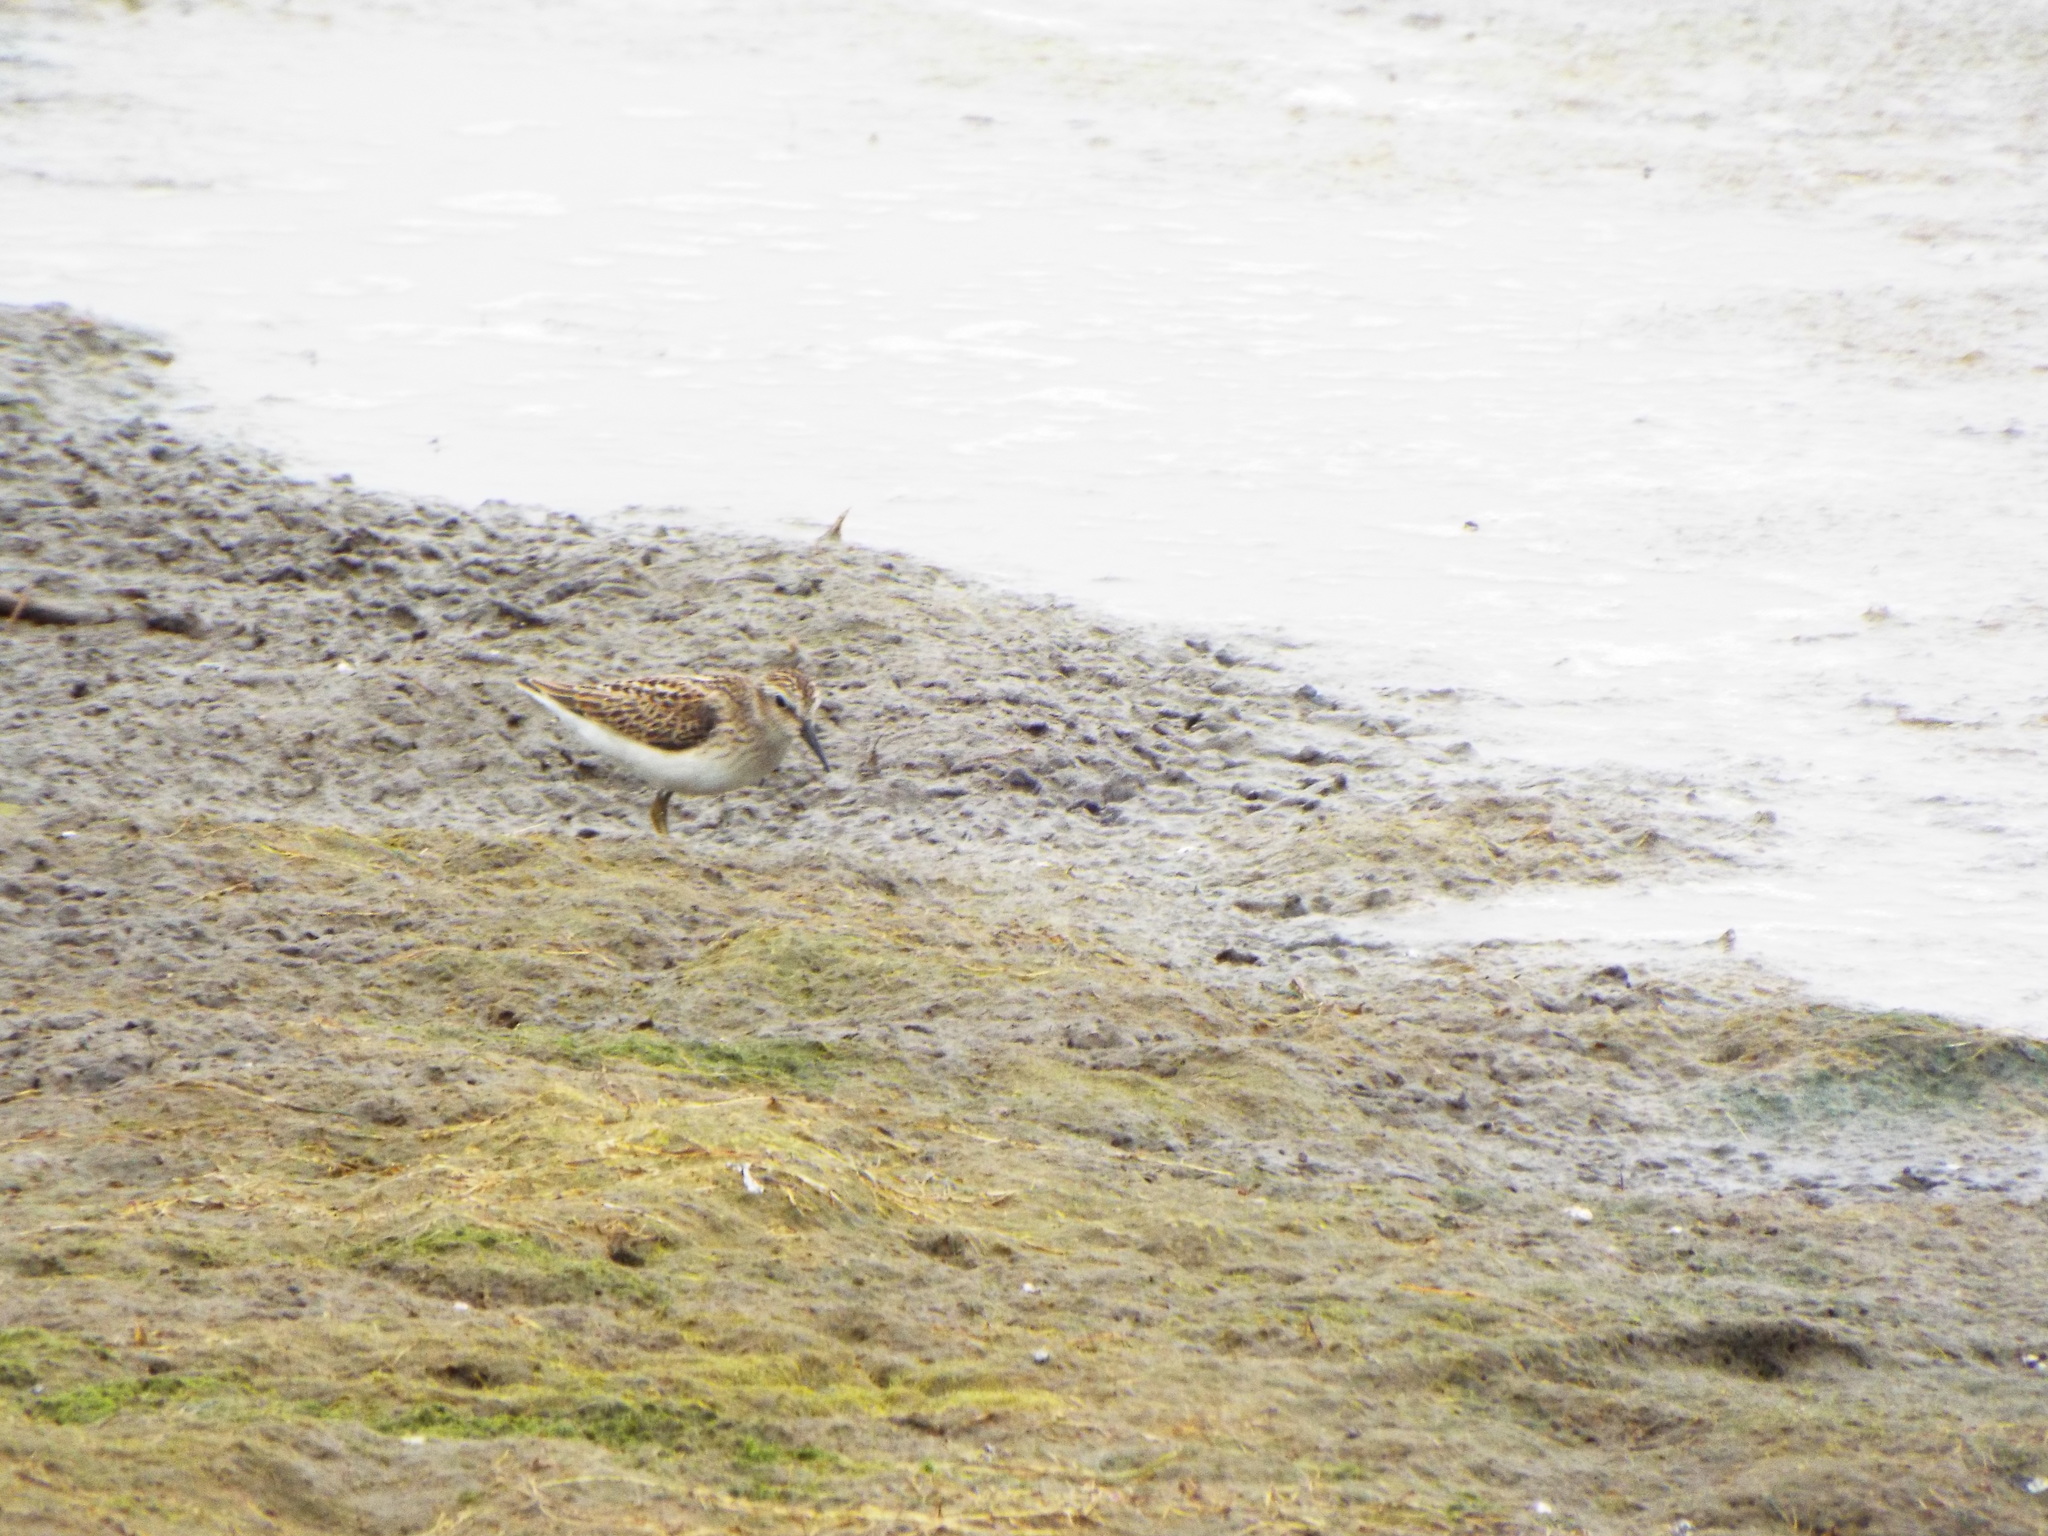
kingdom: Animalia
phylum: Chordata
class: Aves
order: Charadriiformes
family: Scolopacidae
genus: Calidris
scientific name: Calidris minutilla
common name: Least sandpiper
